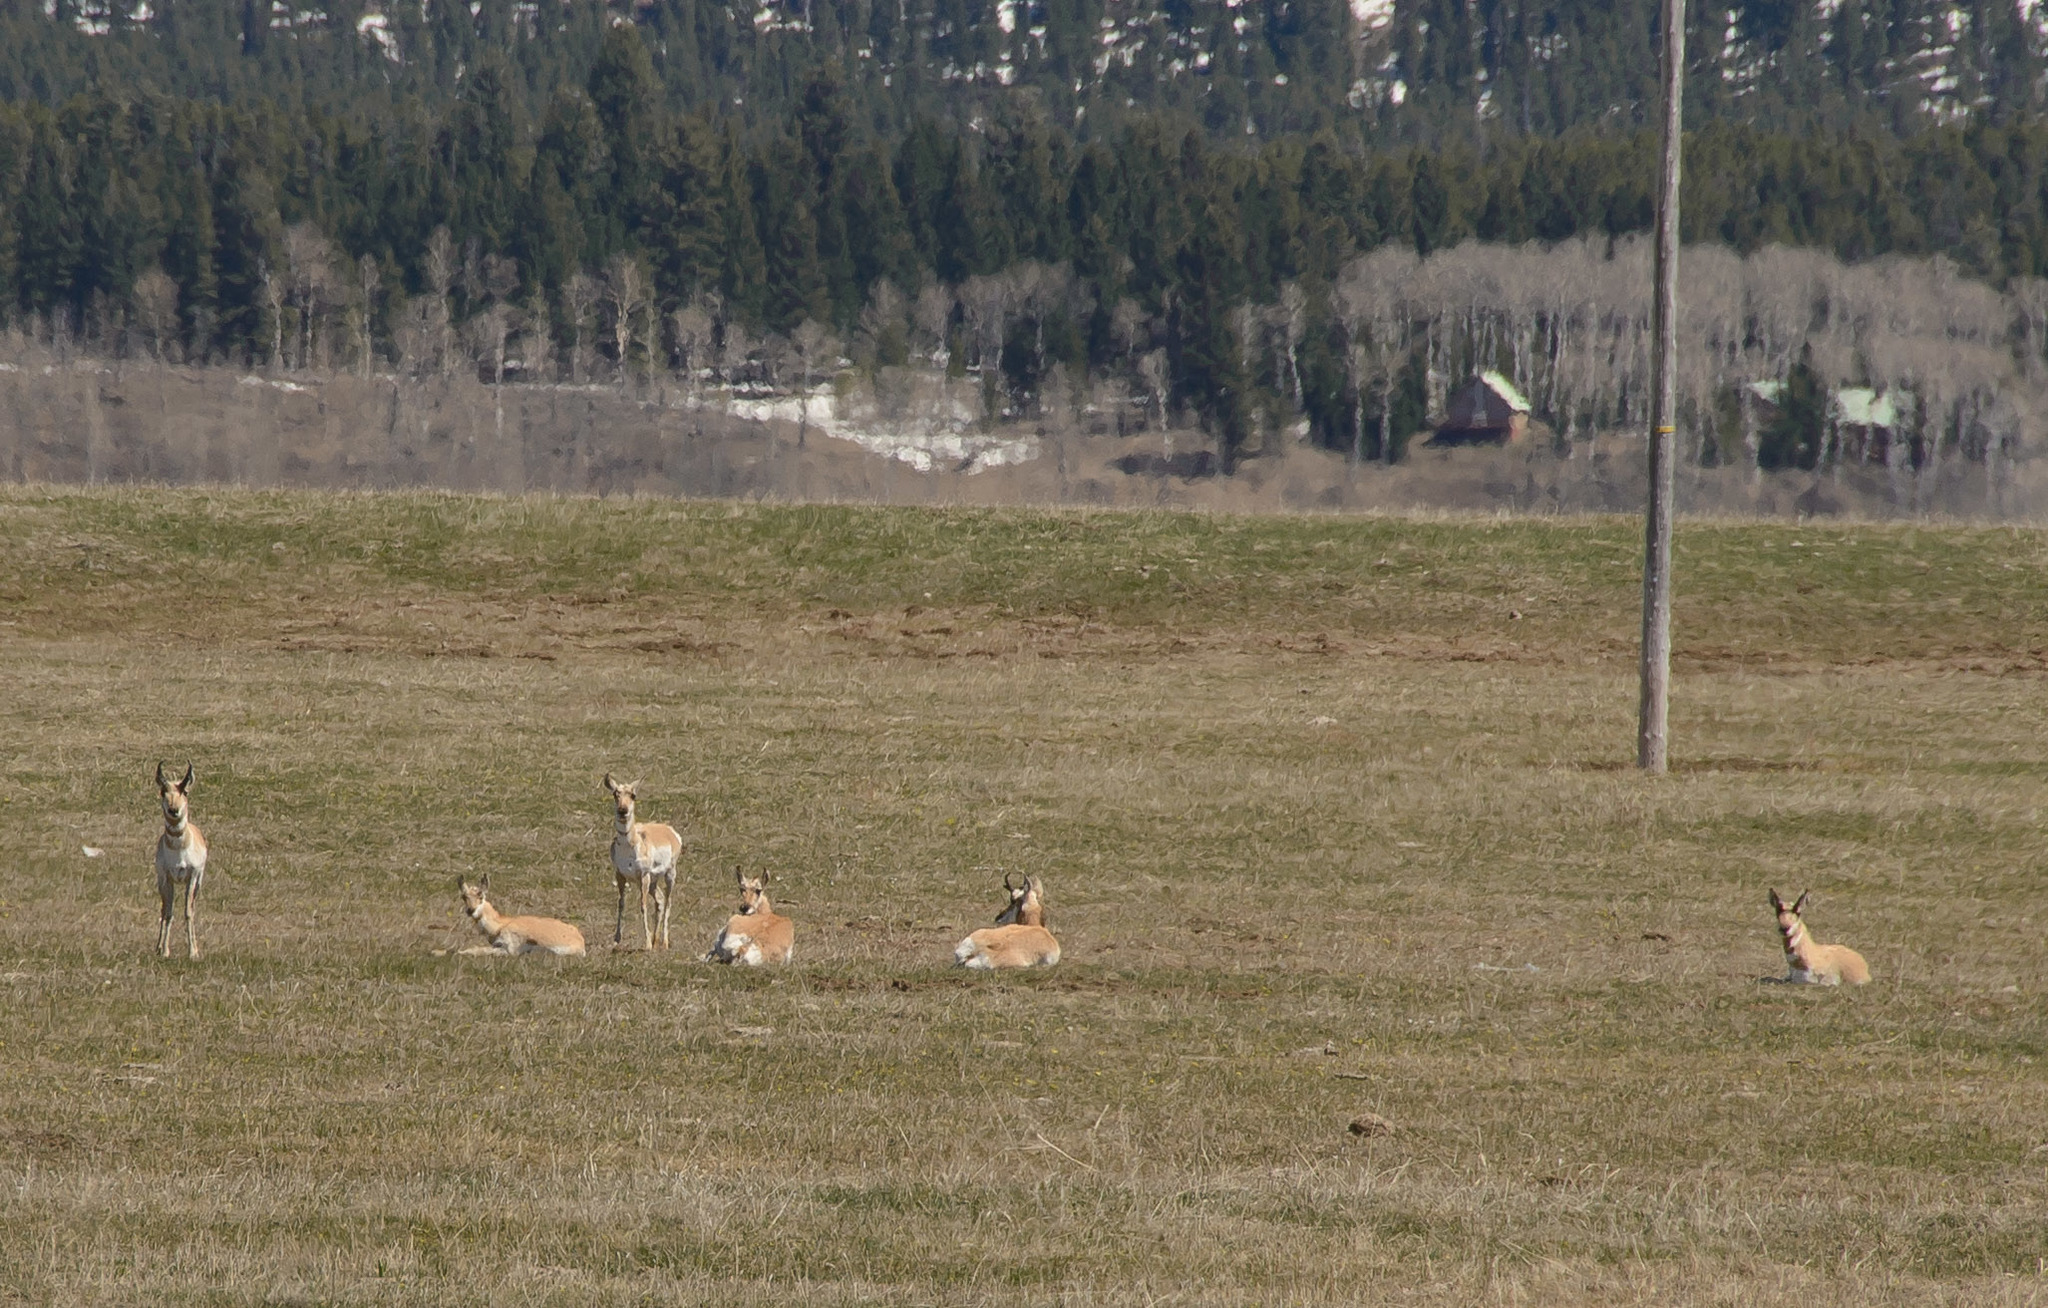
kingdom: Animalia
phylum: Chordata
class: Mammalia
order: Artiodactyla
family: Antilocapridae
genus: Antilocapra
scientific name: Antilocapra americana
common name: Pronghorn
